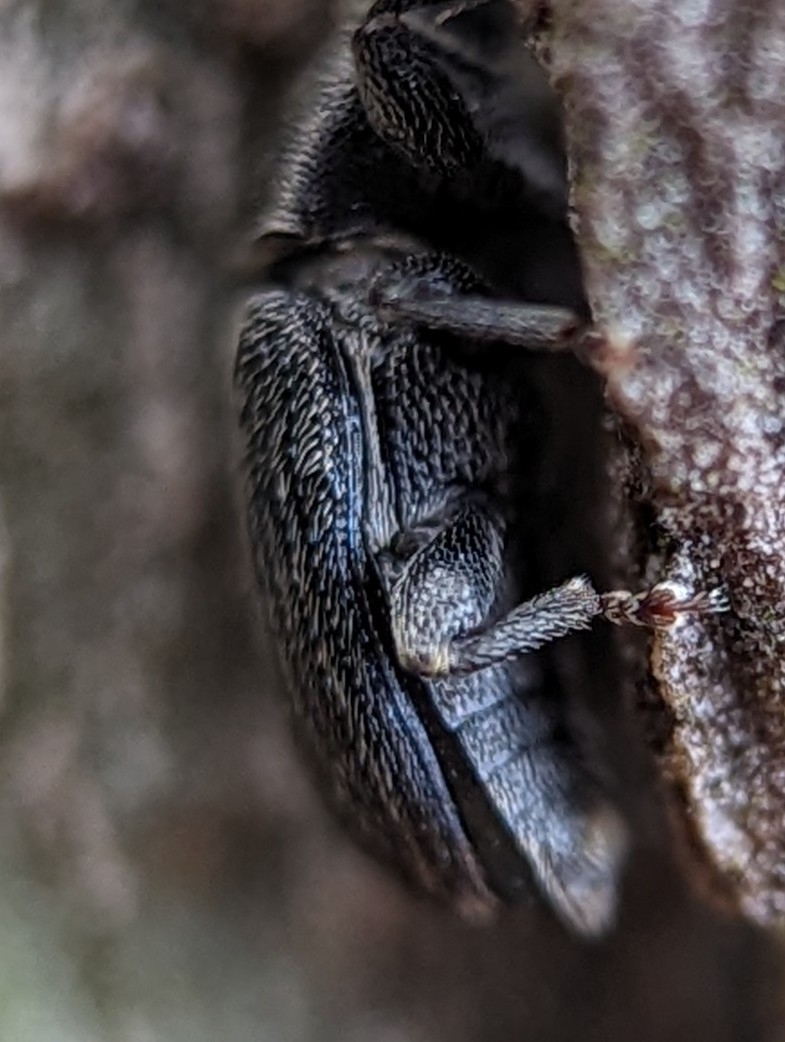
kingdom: Animalia
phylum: Arthropoda
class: Insecta
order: Coleoptera
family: Curculionidae
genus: Mecinus
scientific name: Mecinus pyraster
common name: Weevil
